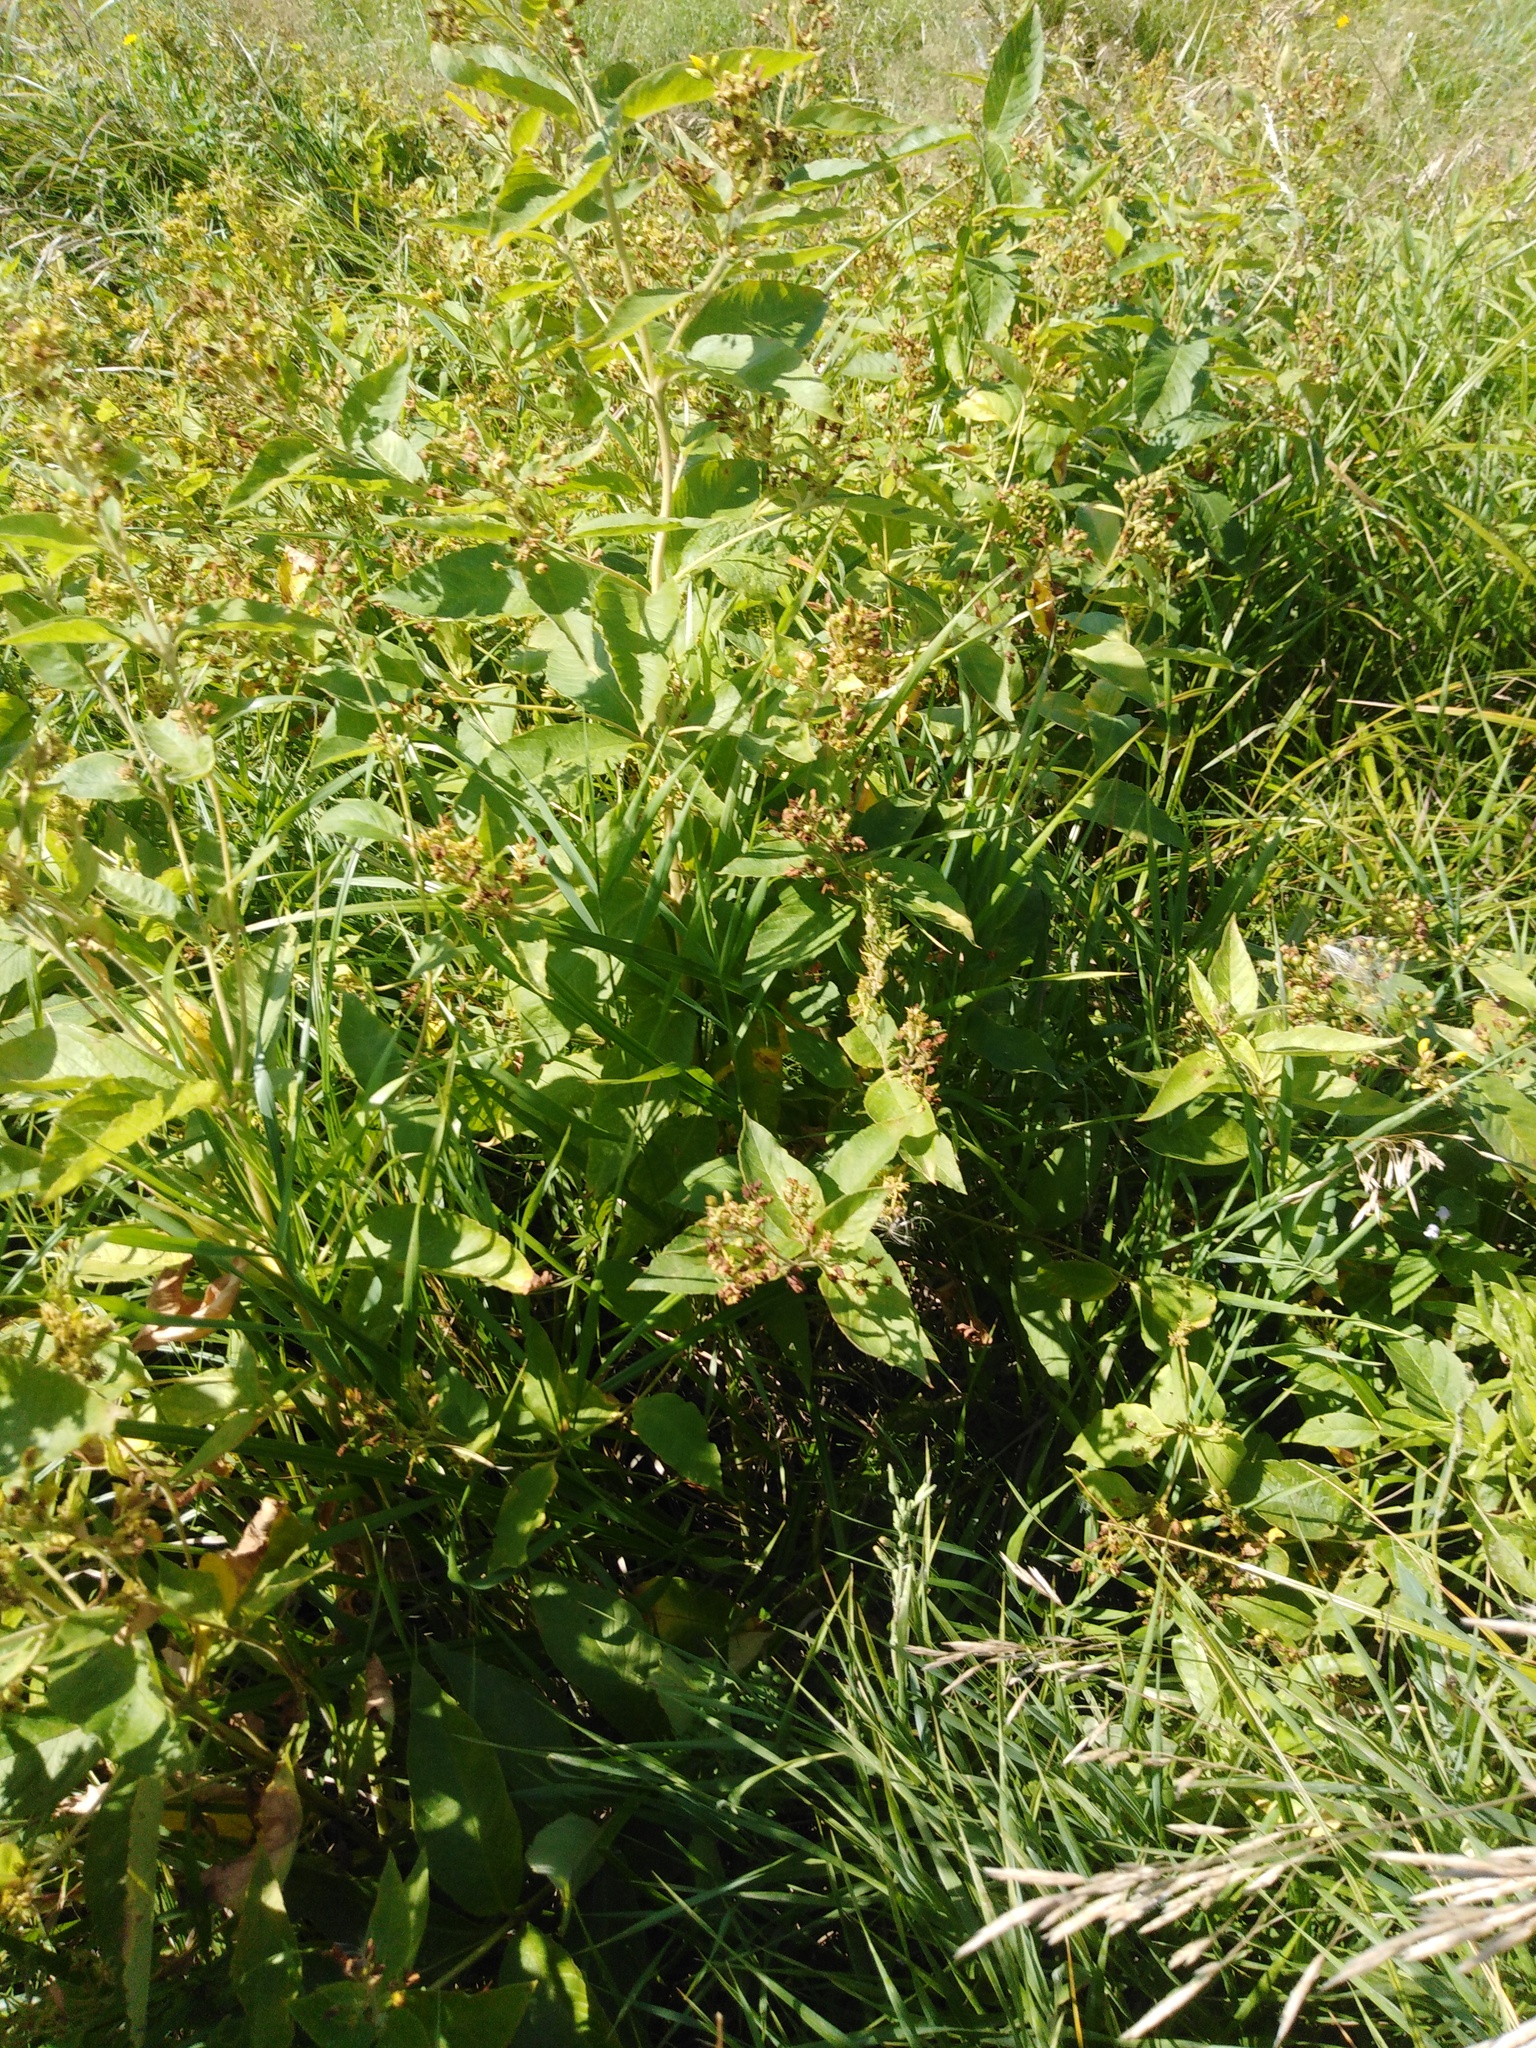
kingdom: Plantae
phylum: Tracheophyta
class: Magnoliopsida
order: Ericales
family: Primulaceae
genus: Lysimachia
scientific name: Lysimachia vulgaris
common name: Yellow loosestrife
